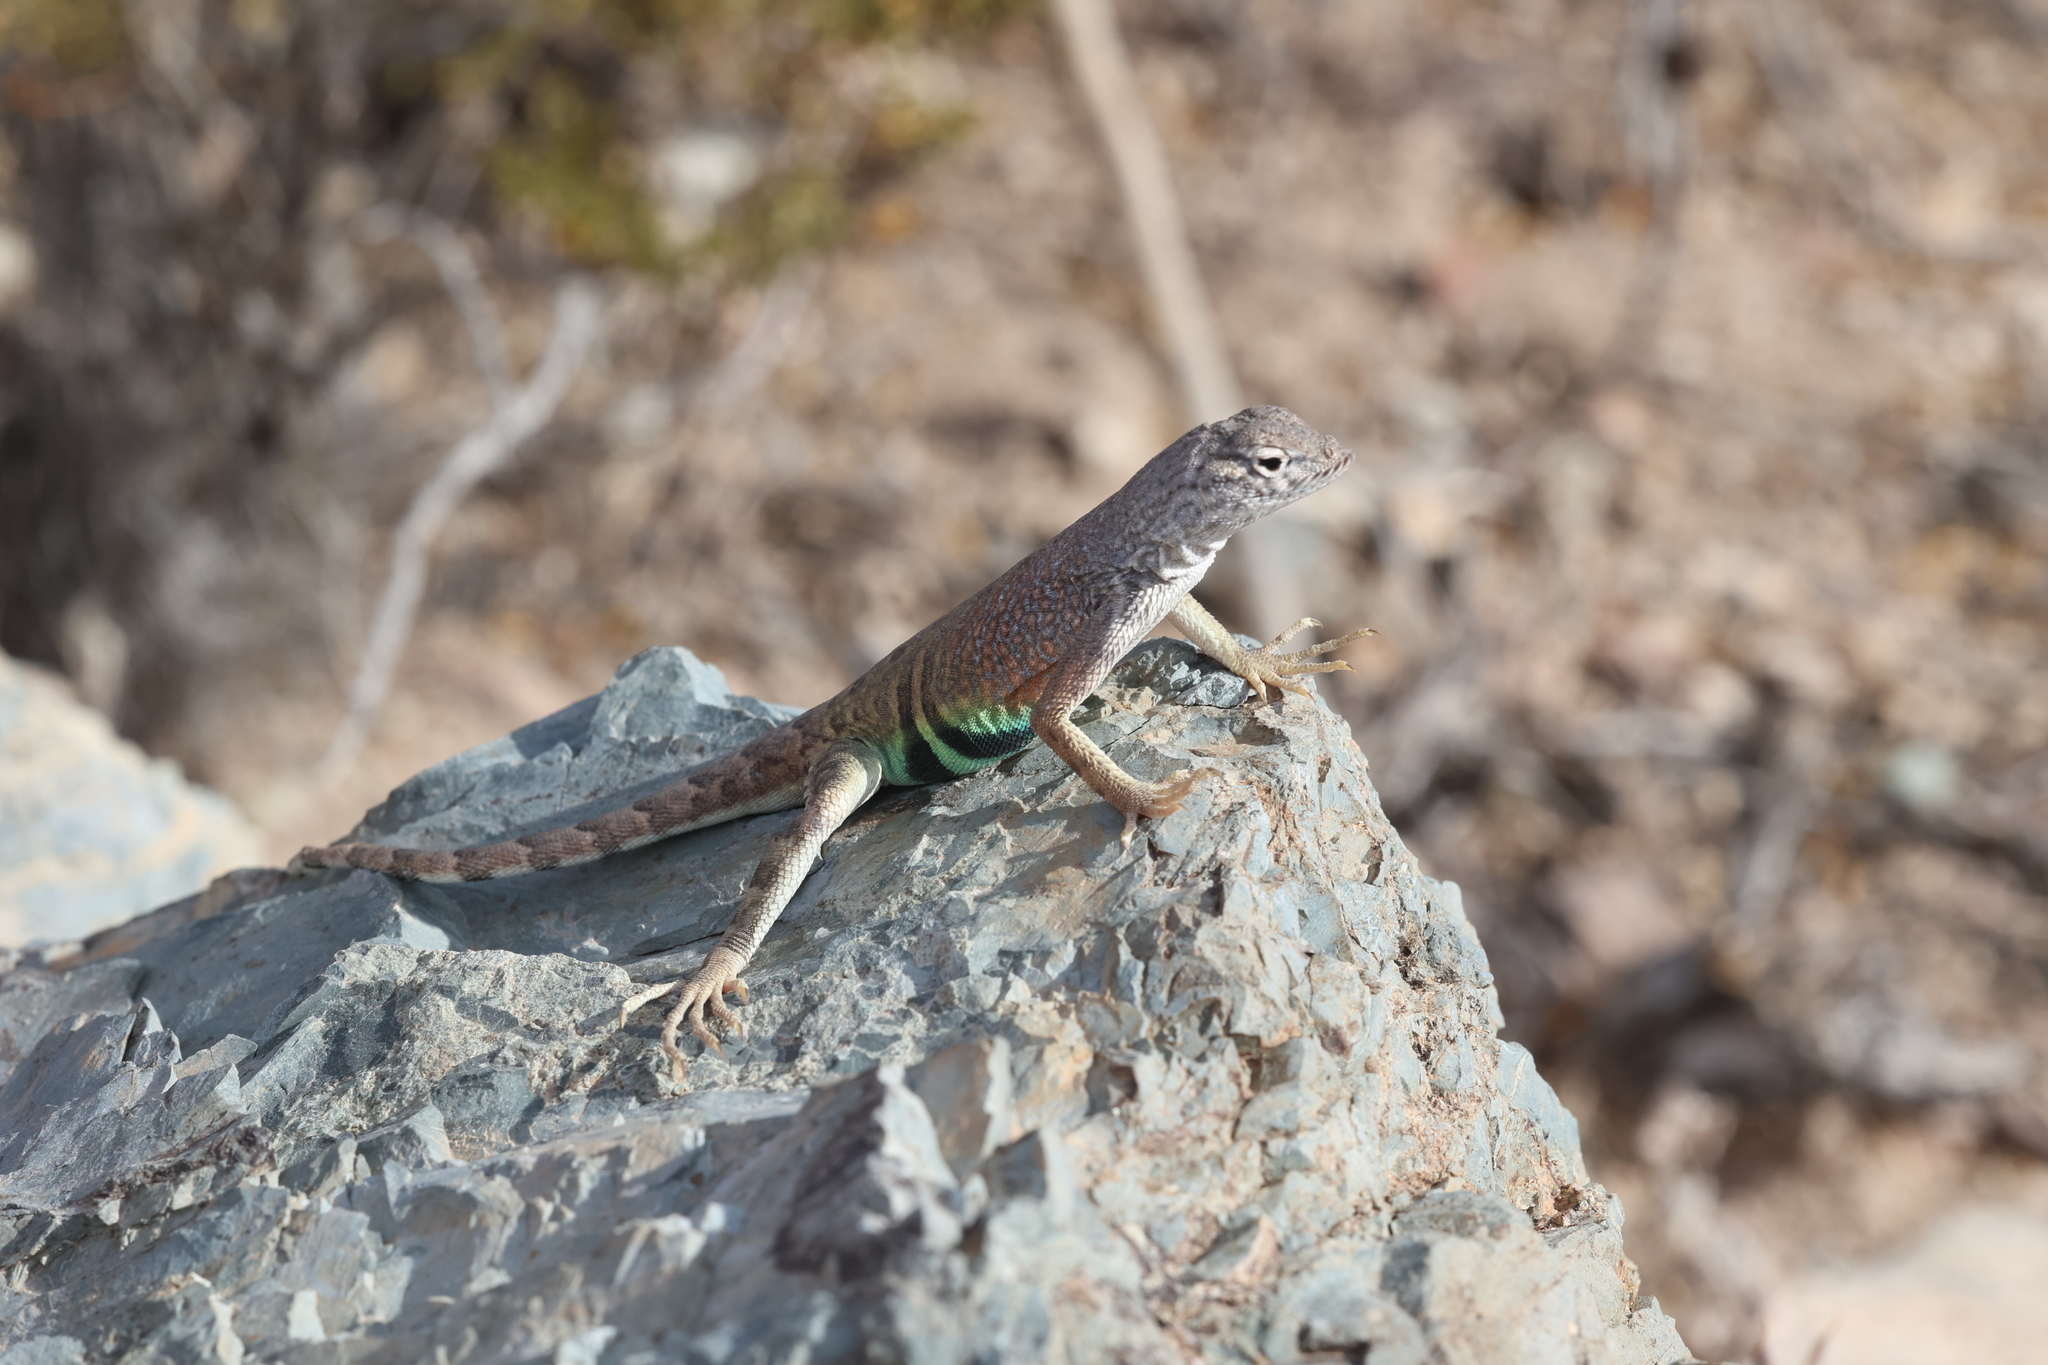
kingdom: Animalia
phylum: Chordata
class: Squamata
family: Phrynosomatidae
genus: Cophosaurus
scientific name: Cophosaurus texanus
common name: Greater earless lizard
